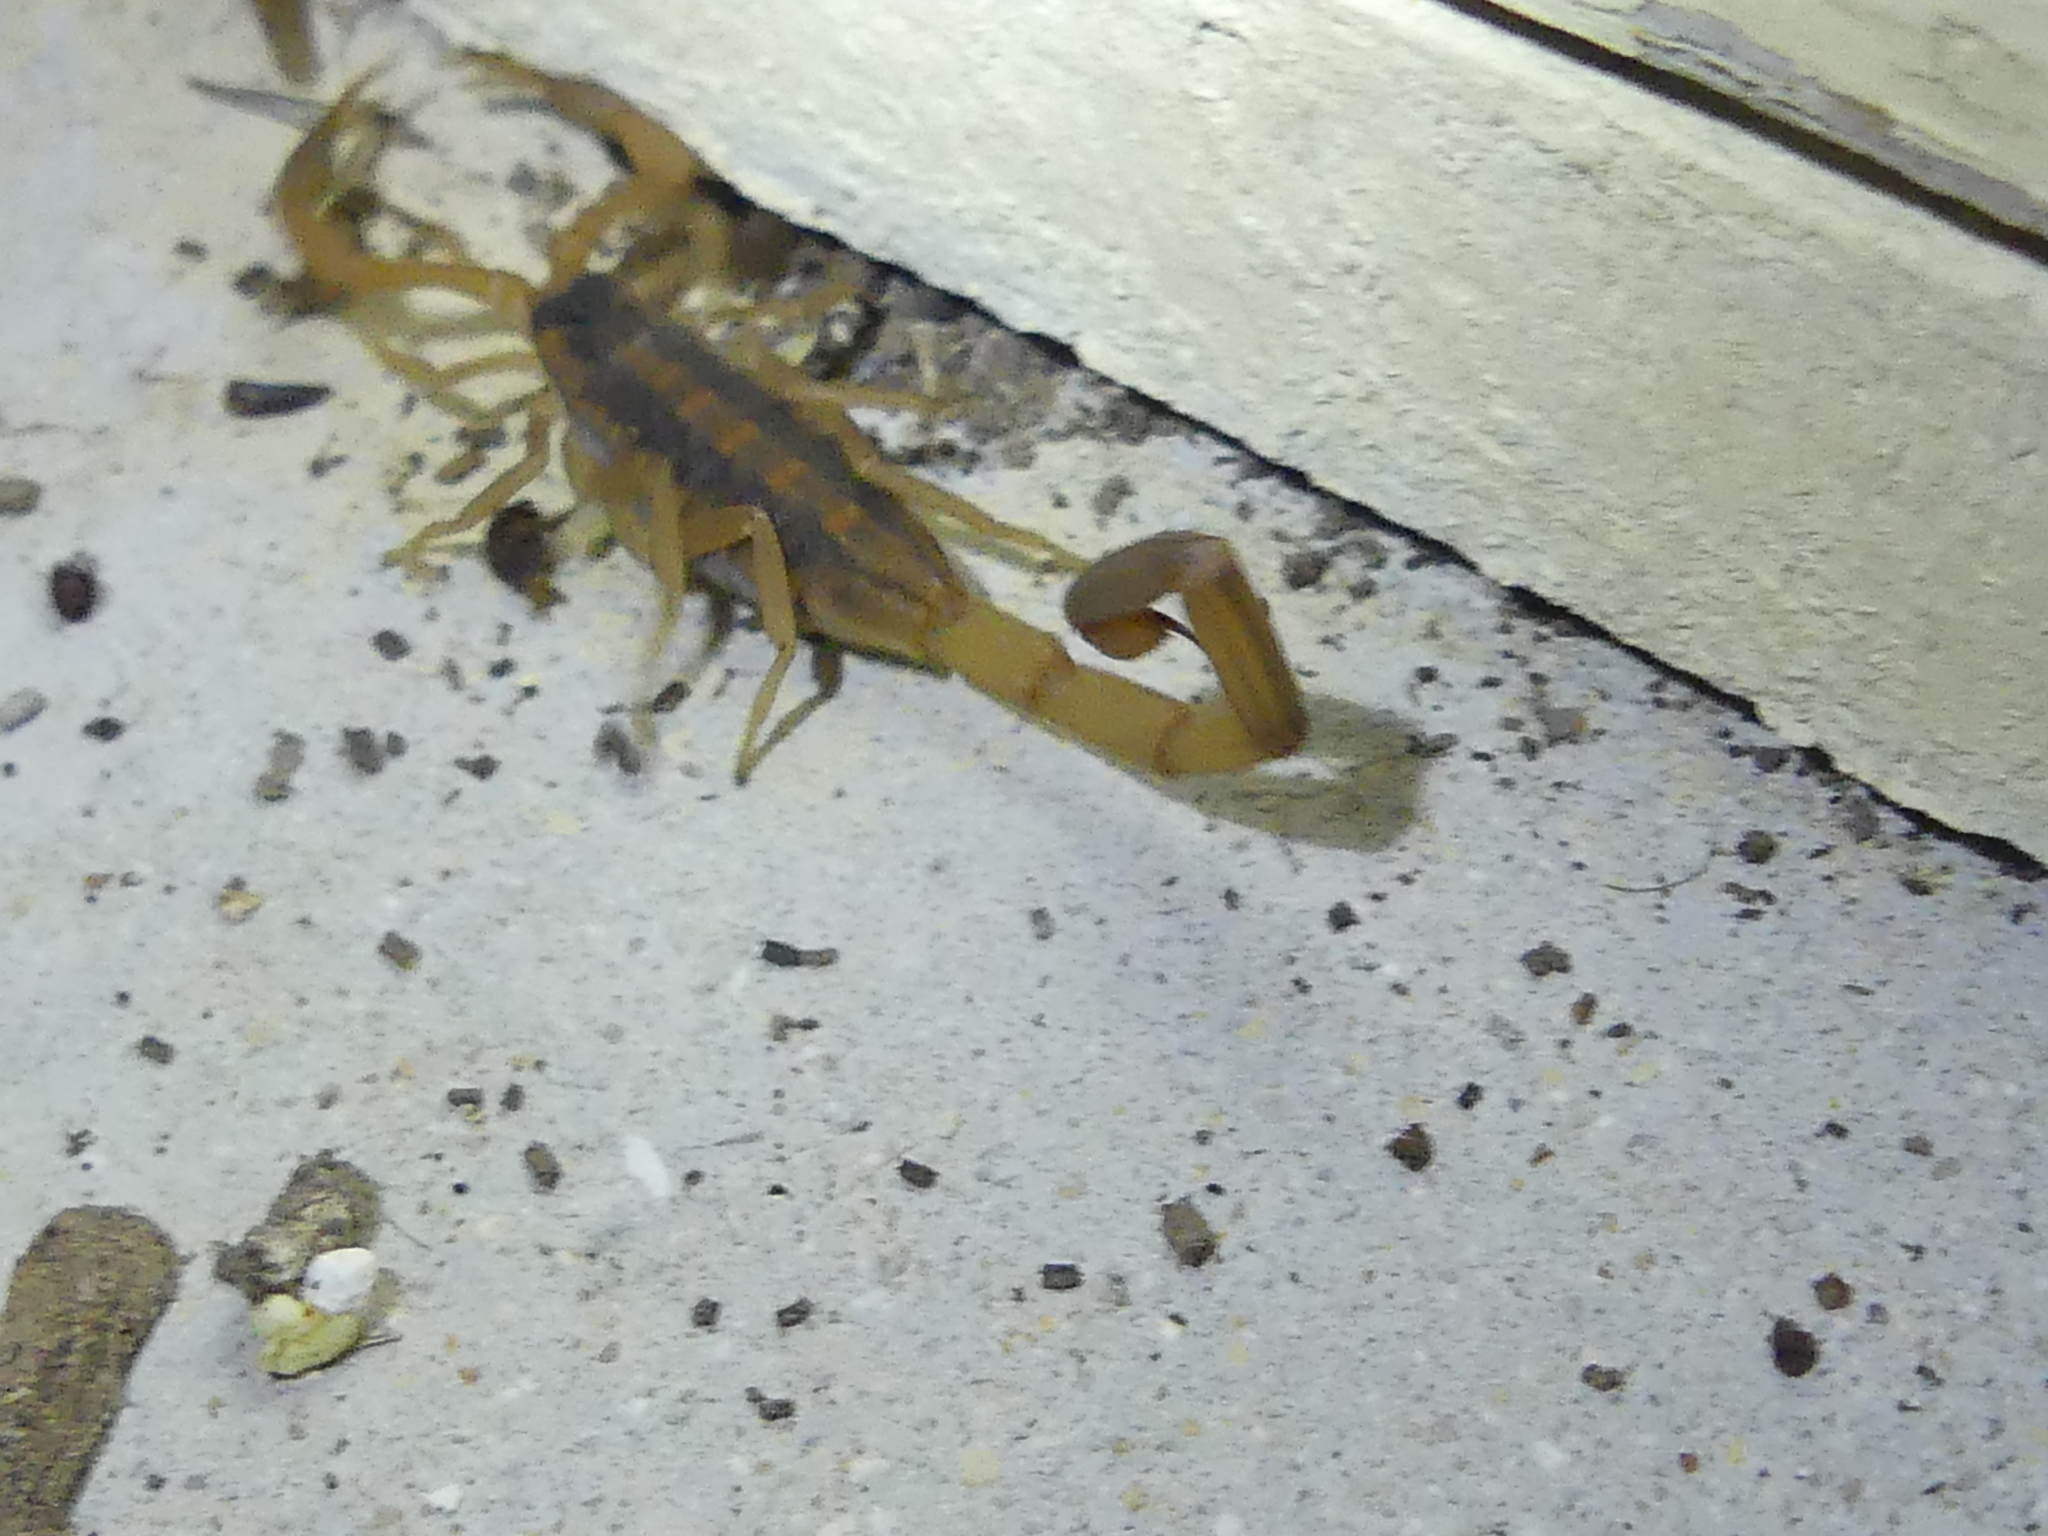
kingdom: Animalia
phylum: Arthropoda
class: Arachnida
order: Scorpiones
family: Buthidae
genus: Centruroides
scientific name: Centruroides vittatus
